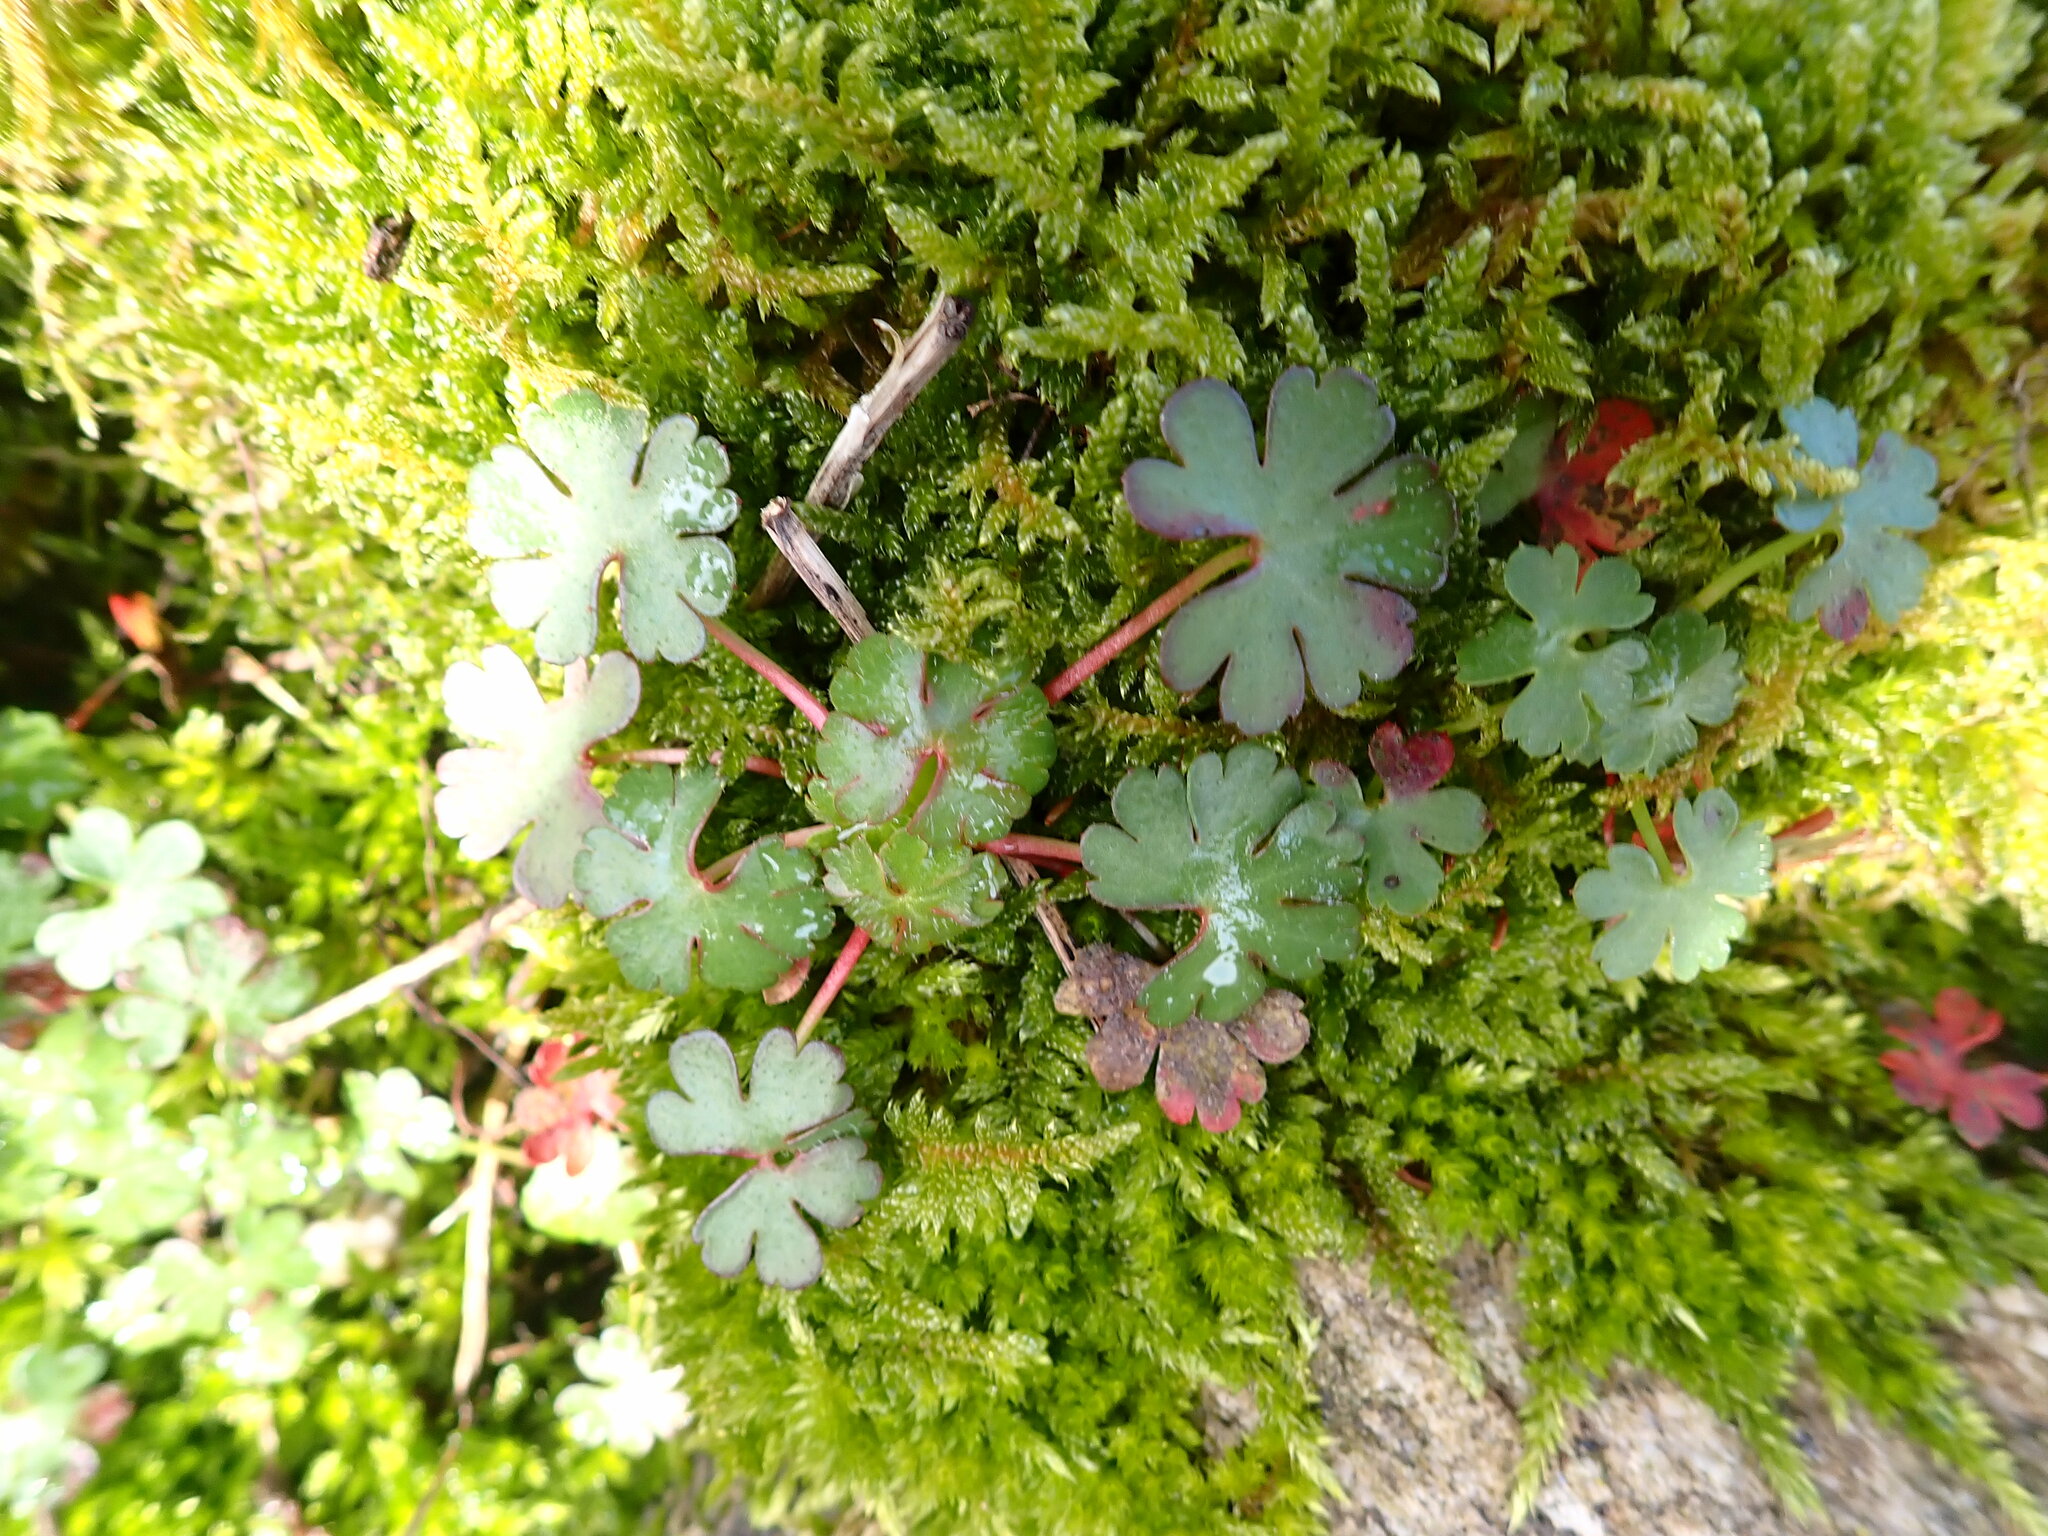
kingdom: Plantae
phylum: Tracheophyta
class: Magnoliopsida
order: Geraniales
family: Geraniaceae
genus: Geranium
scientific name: Geranium lucidum
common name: Shining crane's-bill
